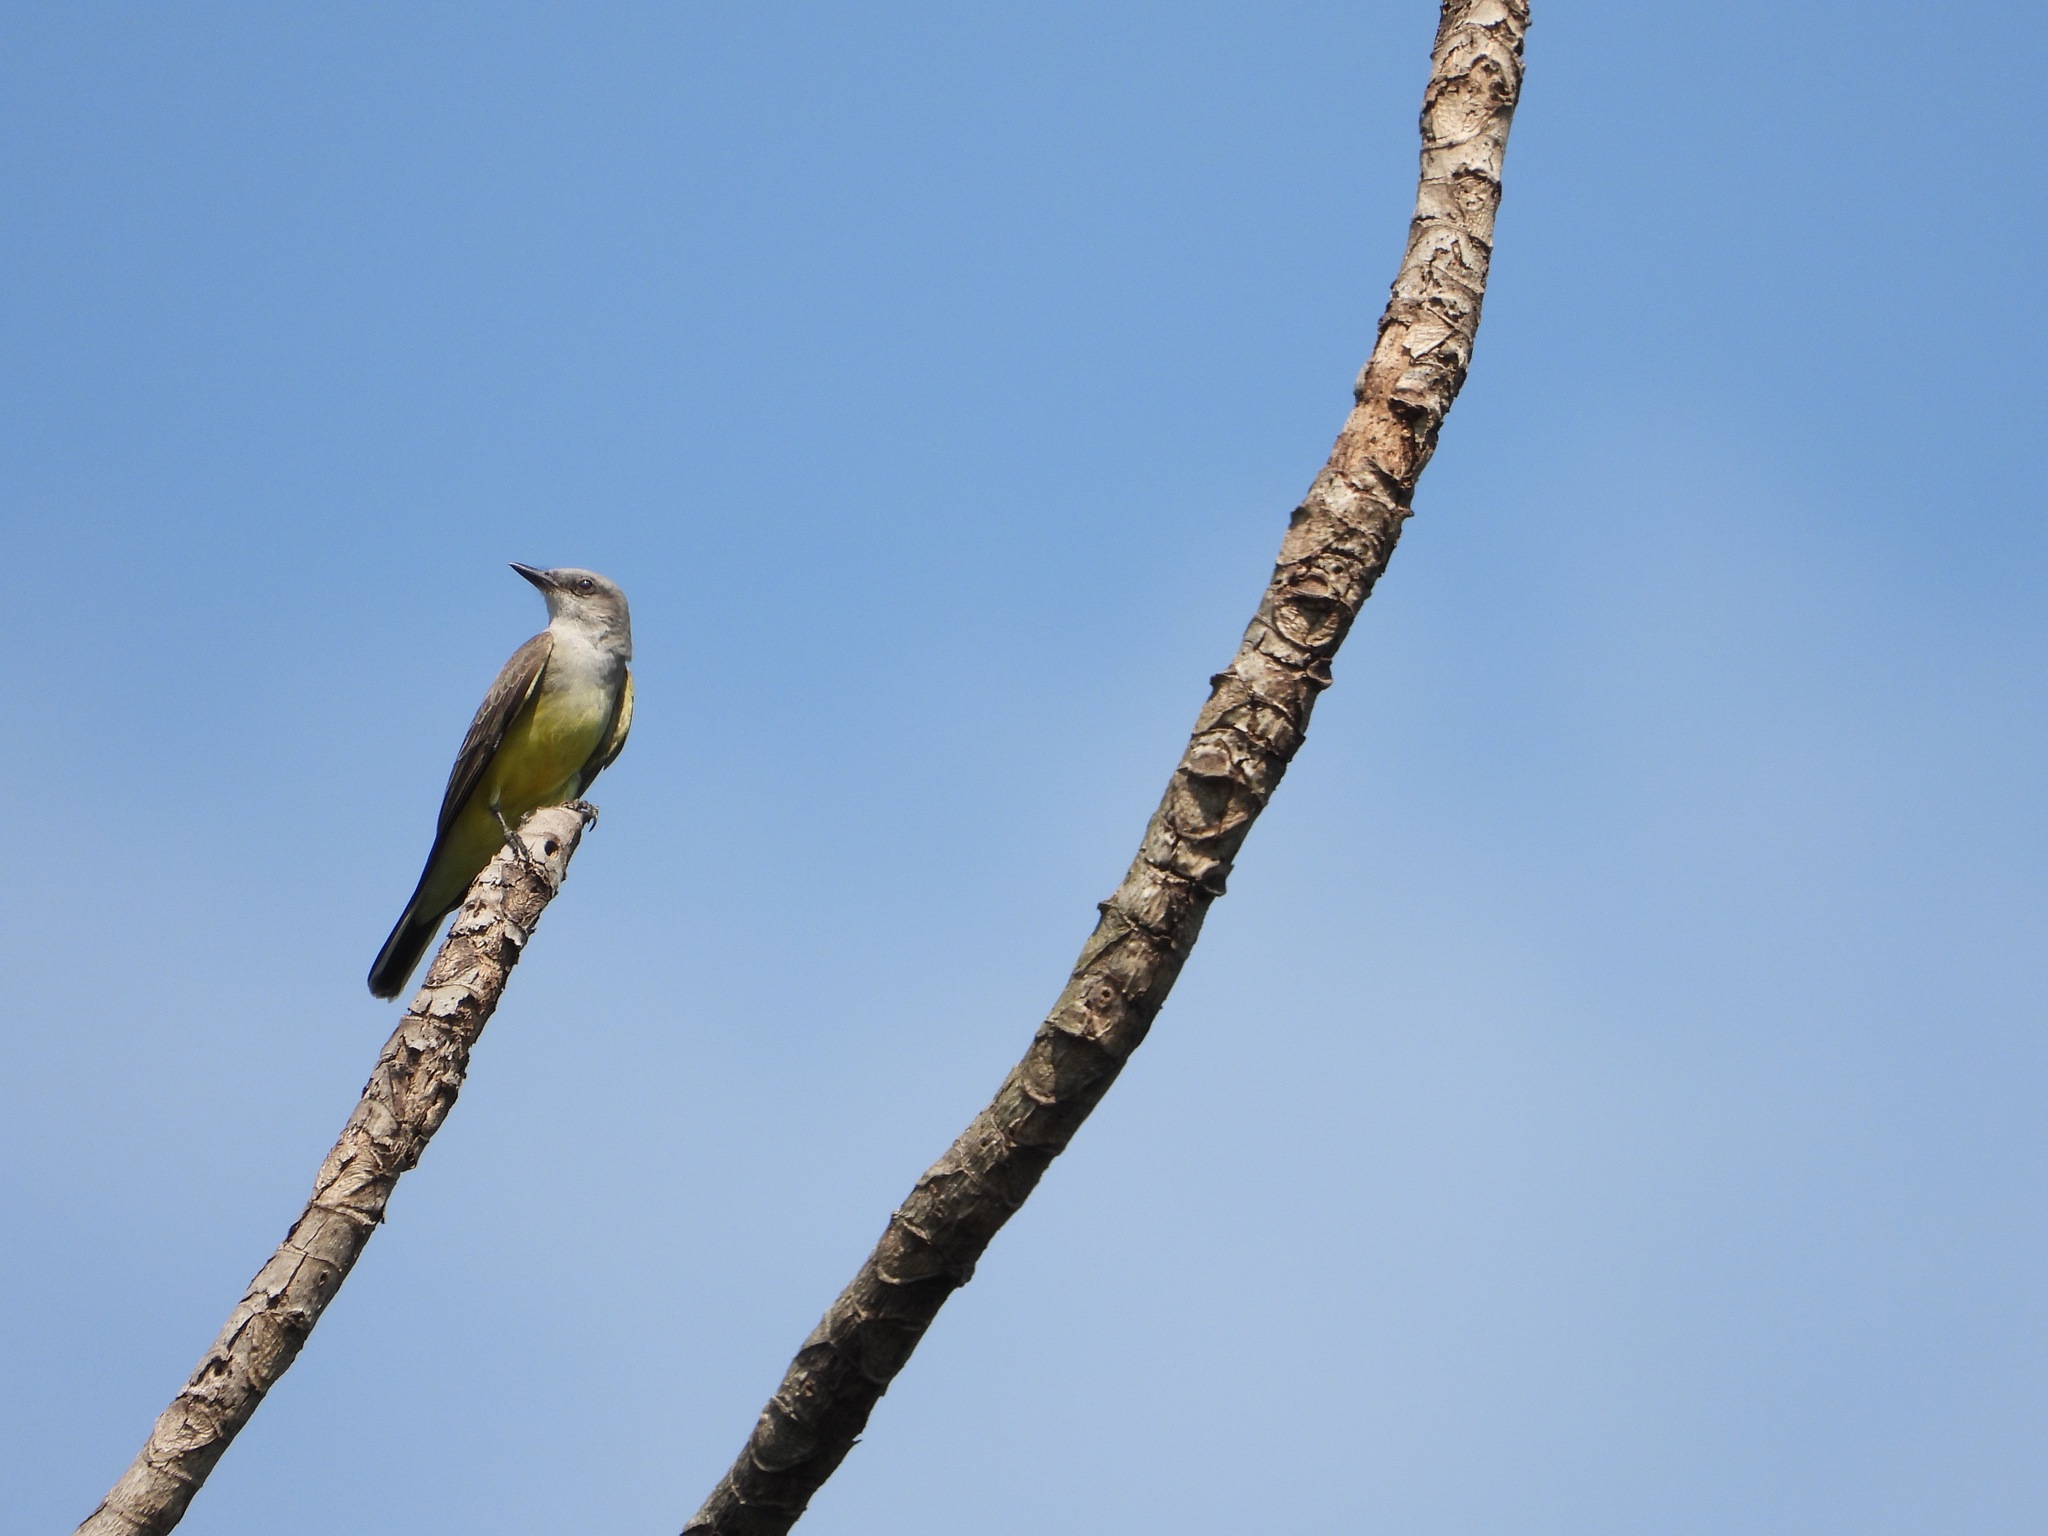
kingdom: Animalia
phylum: Chordata
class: Aves
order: Passeriformes
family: Tyrannidae
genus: Tyrannus
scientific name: Tyrannus verticalis
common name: Western kingbird
